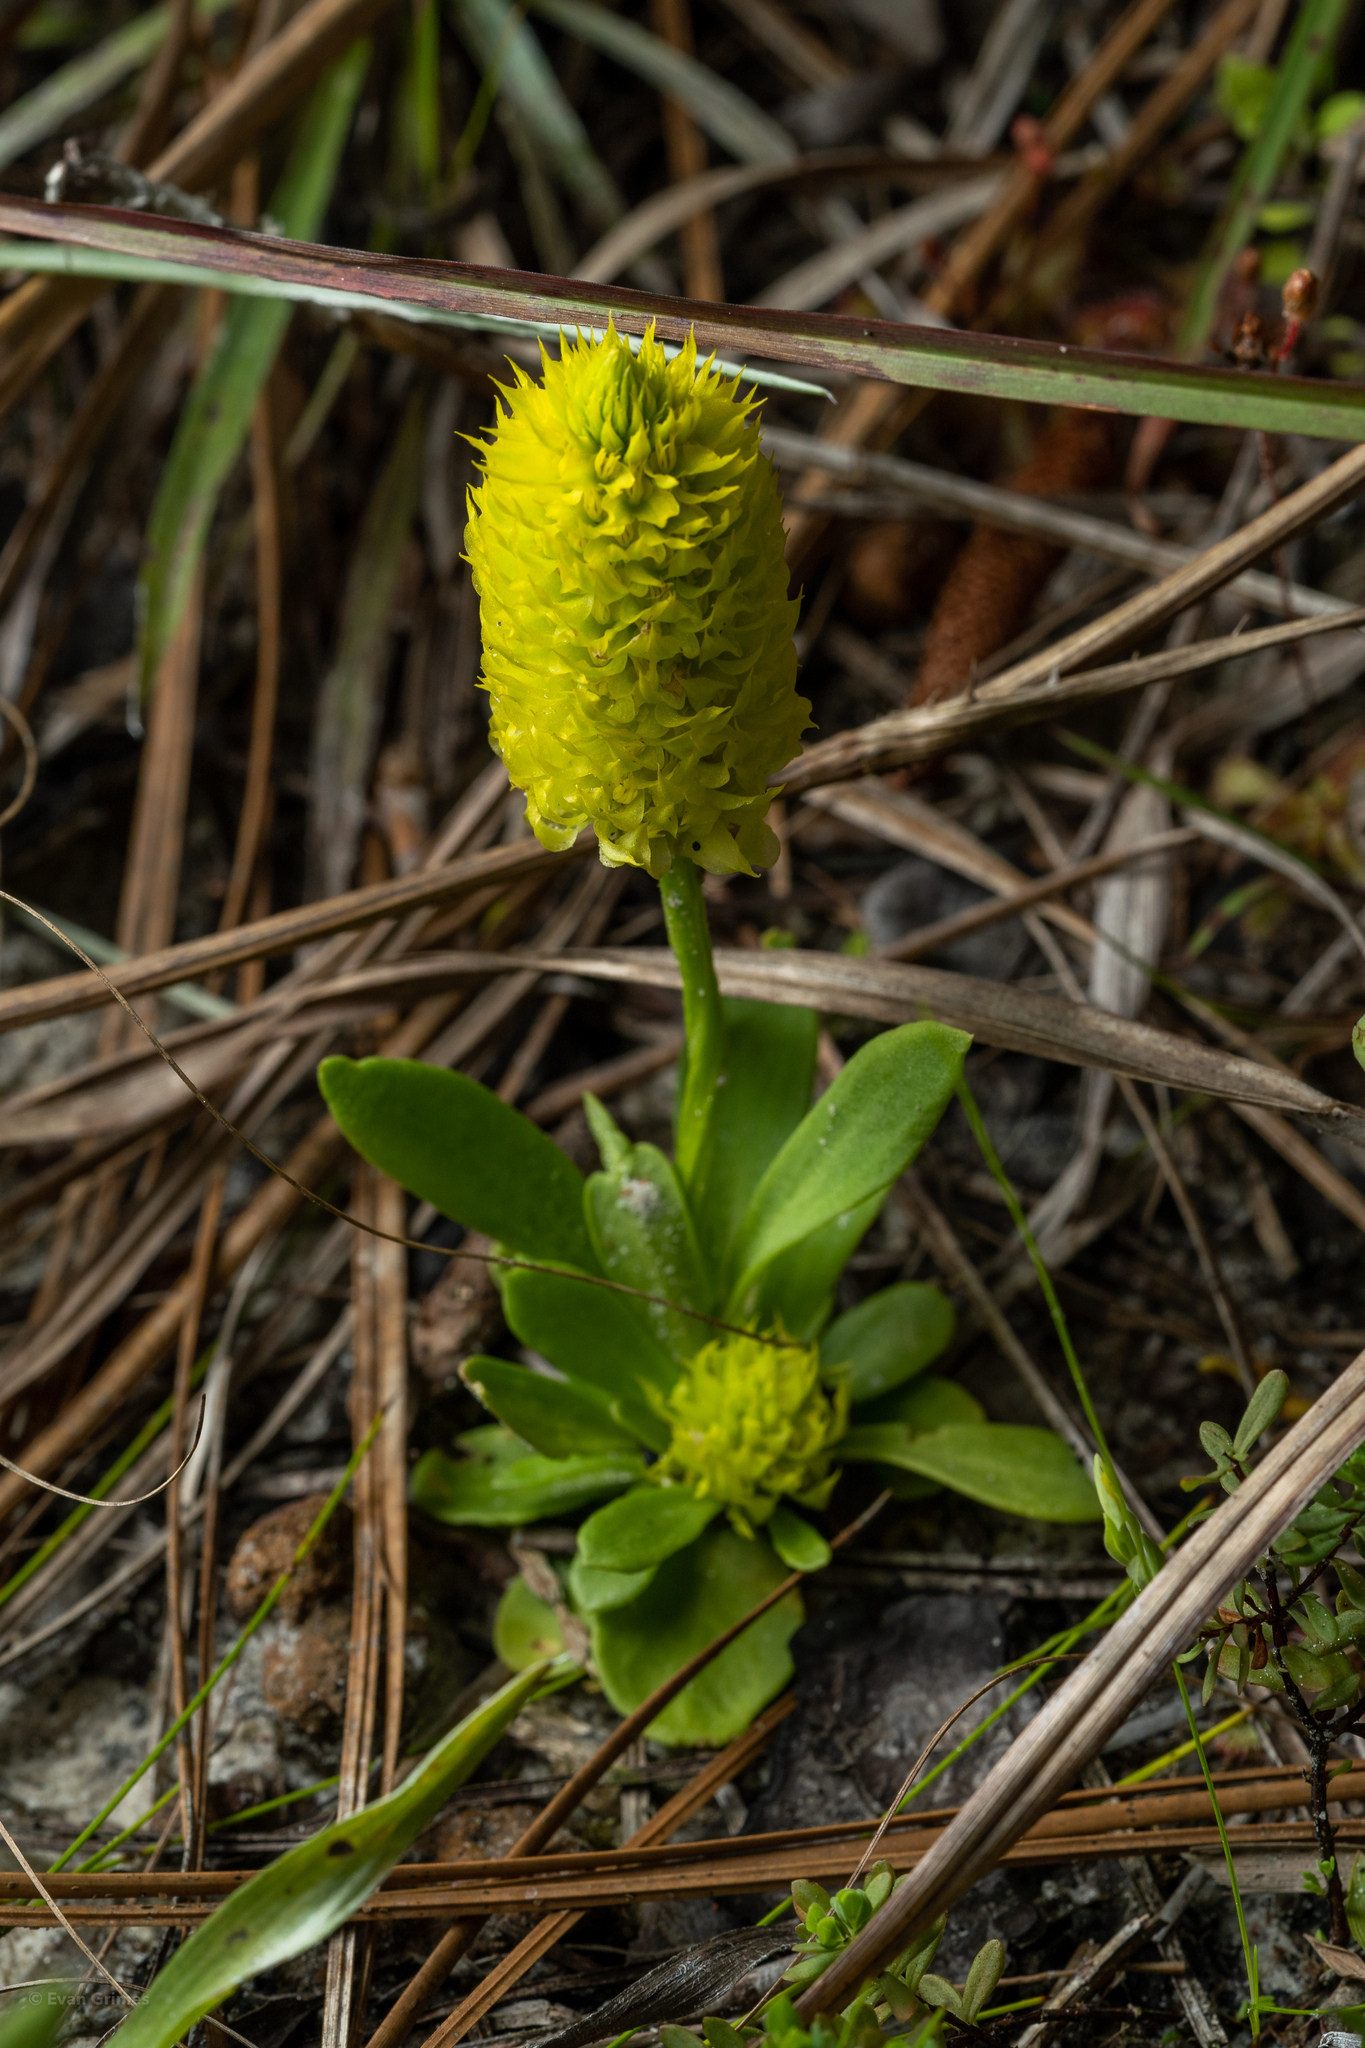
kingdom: Plantae
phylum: Tracheophyta
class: Magnoliopsida
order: Fabales
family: Polygalaceae
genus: Polygala
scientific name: Polygala nana
